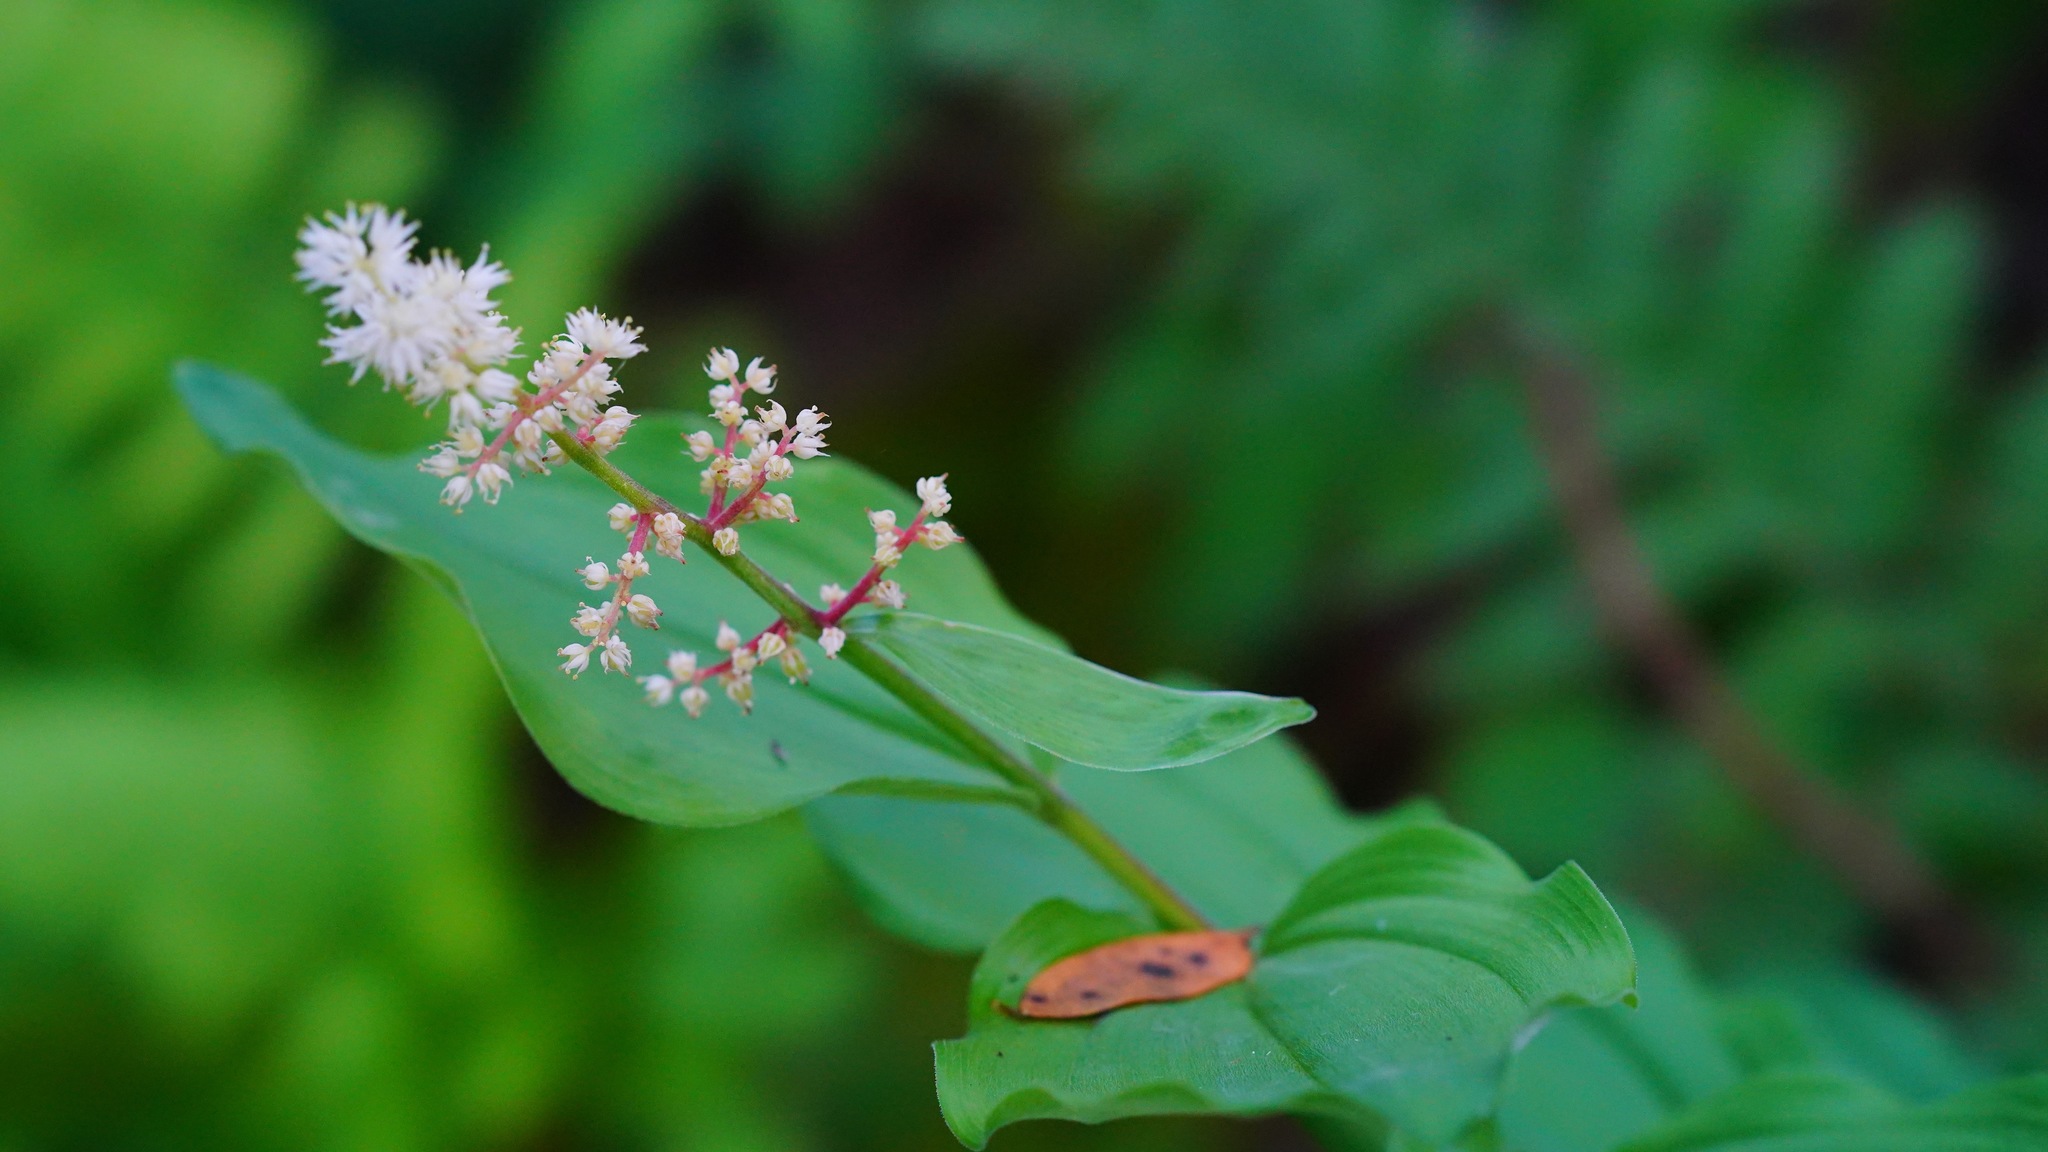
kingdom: Plantae
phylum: Tracheophyta
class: Liliopsida
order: Asparagales
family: Asparagaceae
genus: Maianthemum
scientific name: Maianthemum racemosum
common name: False spikenard
